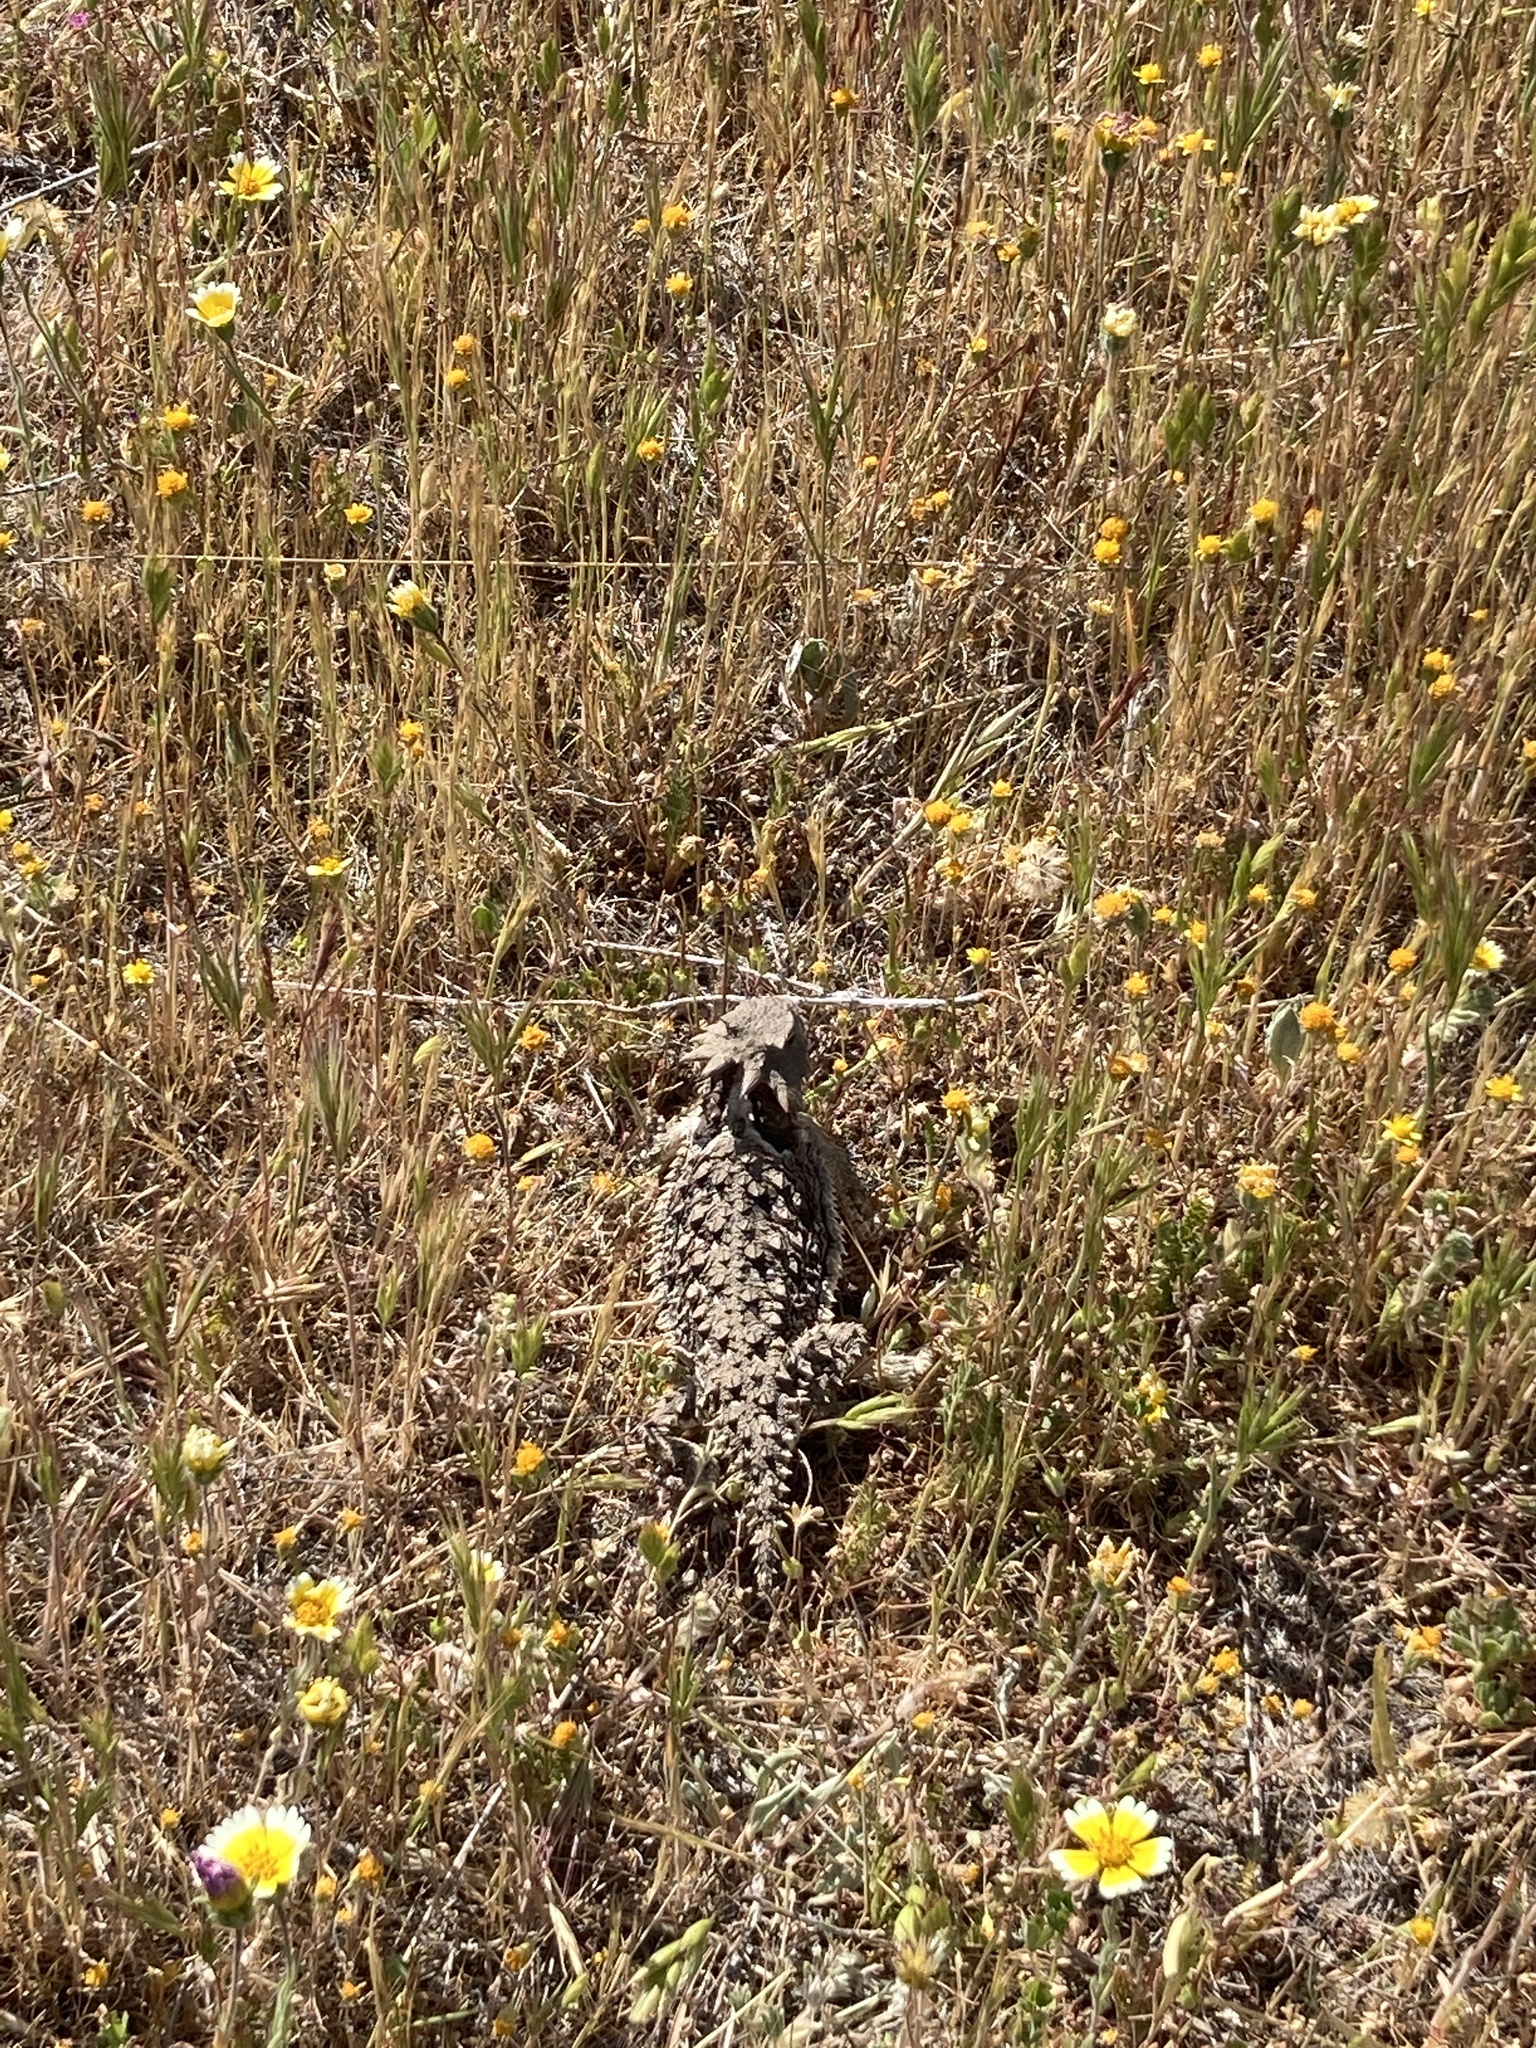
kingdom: Animalia
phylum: Chordata
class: Squamata
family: Phrynosomatidae
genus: Phrynosoma
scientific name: Phrynosoma blainvillii
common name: San diego horned lizard
